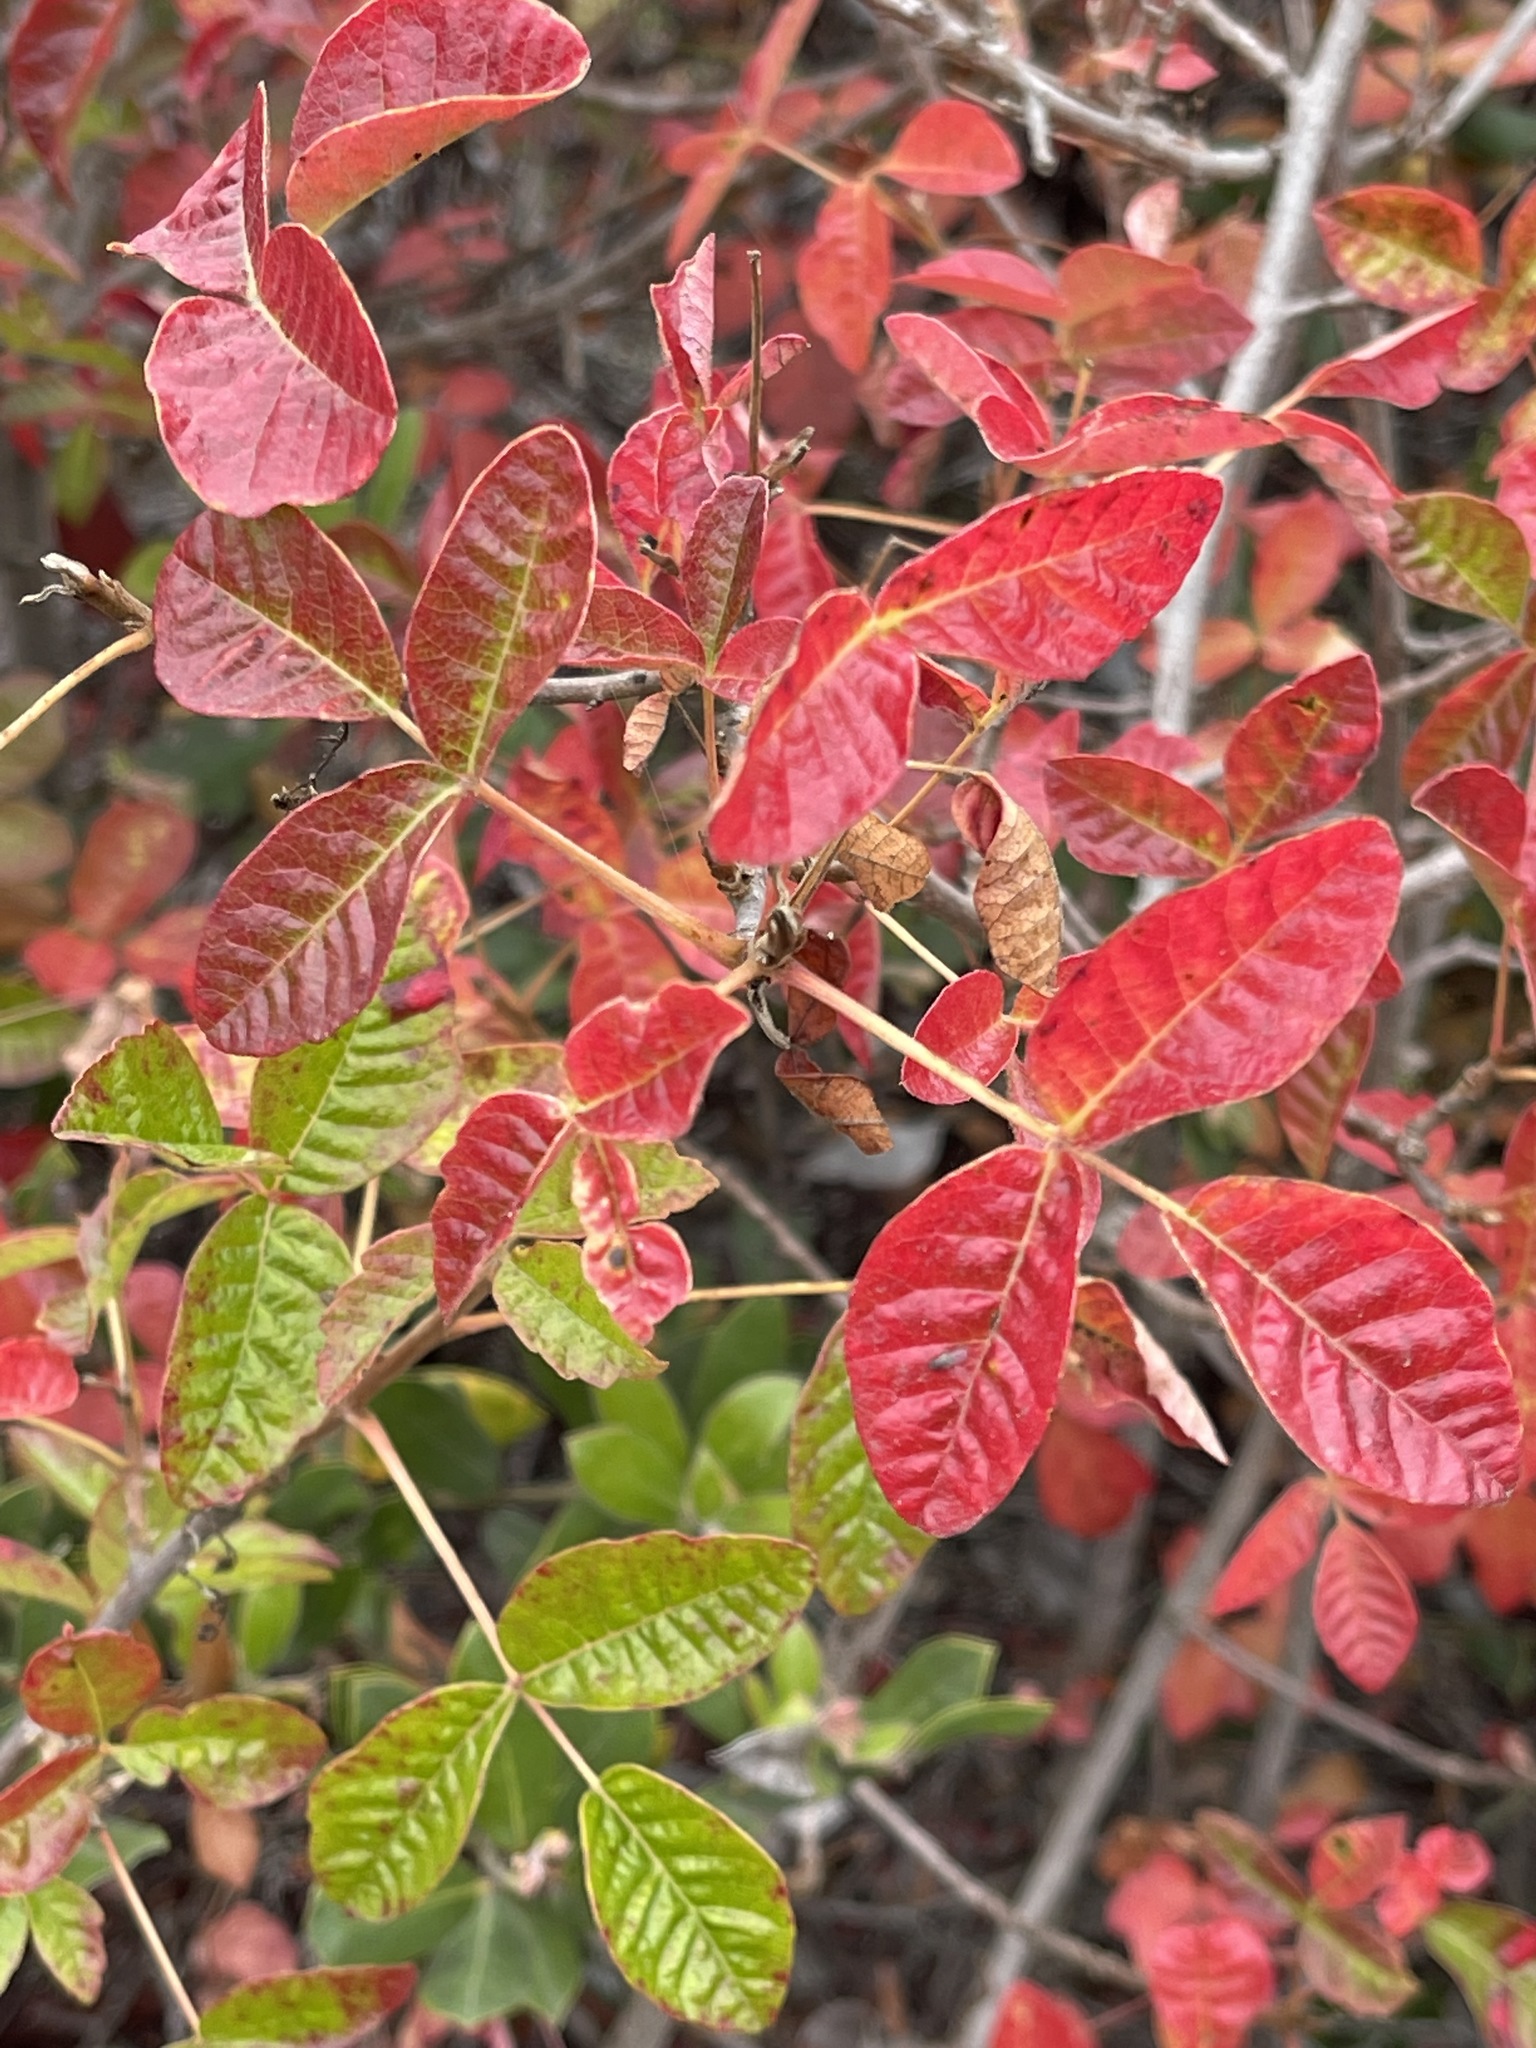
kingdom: Plantae
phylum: Tracheophyta
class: Magnoliopsida
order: Sapindales
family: Anacardiaceae
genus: Toxicodendron
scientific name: Toxicodendron diversilobum
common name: Pacific poison-oak
